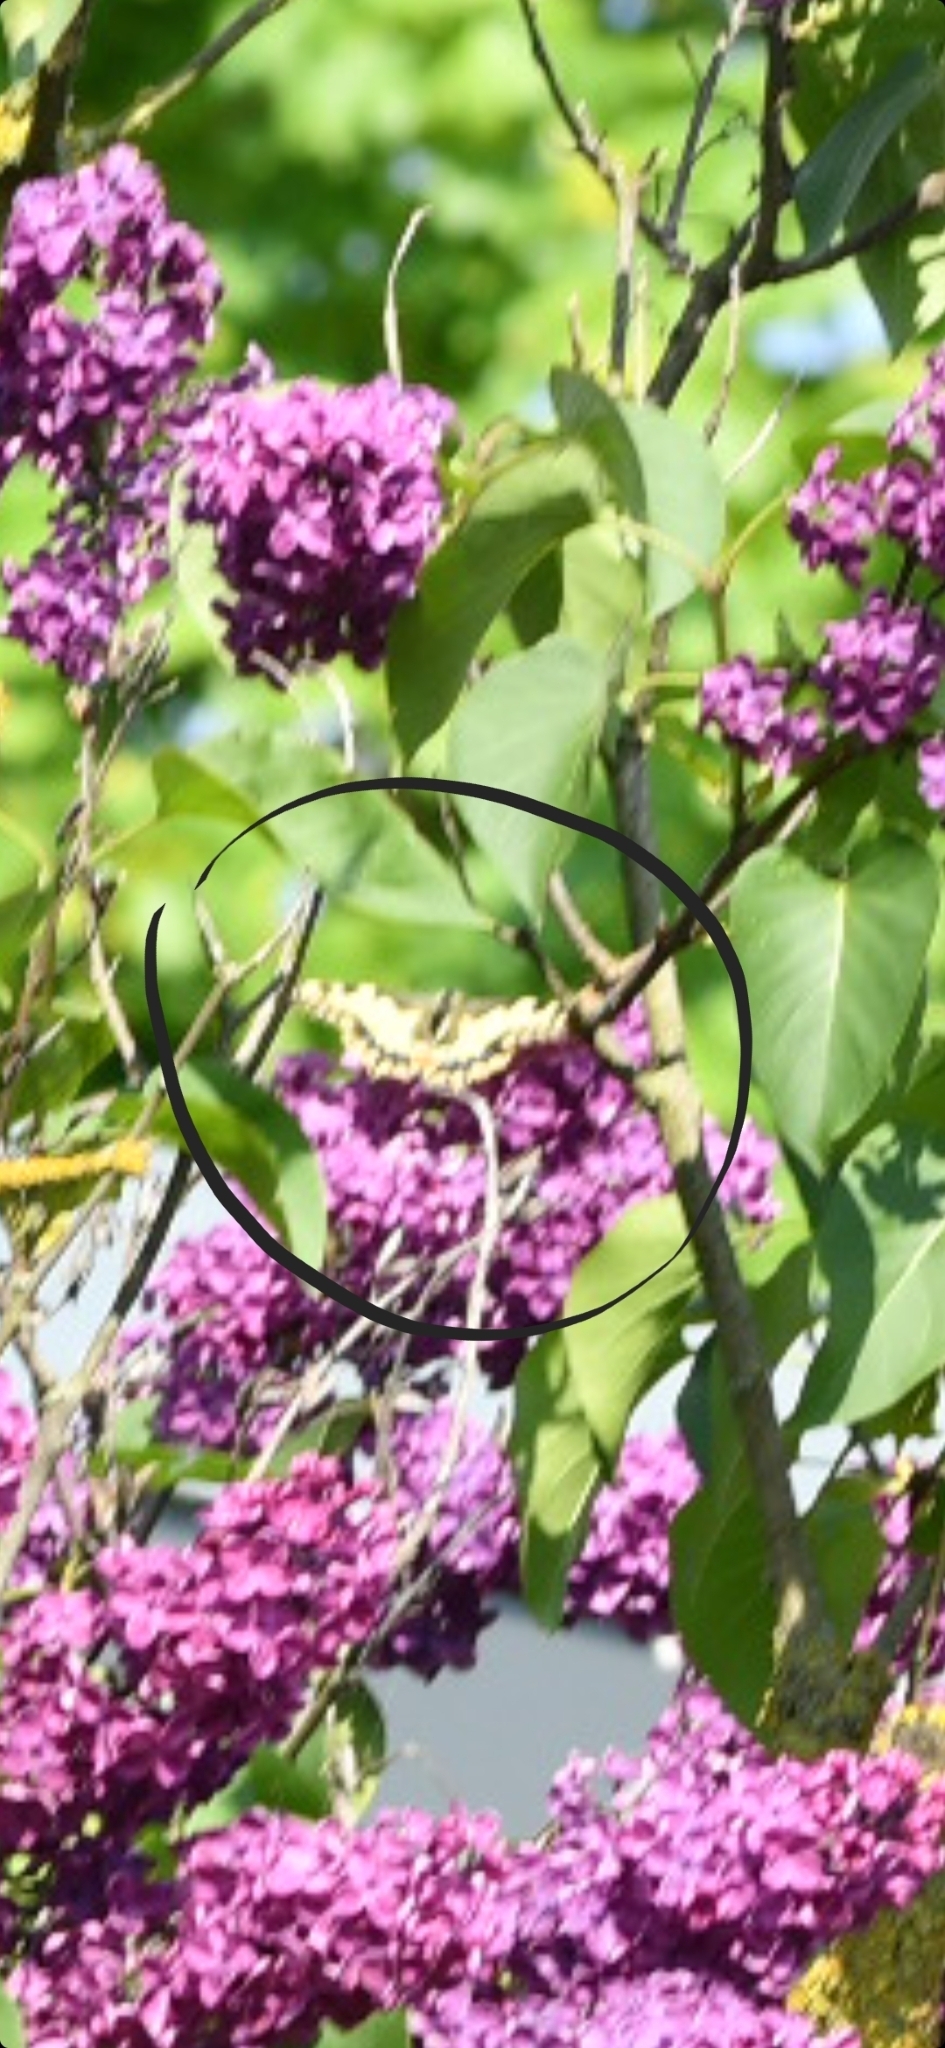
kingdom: Animalia
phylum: Arthropoda
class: Insecta
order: Lepidoptera
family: Papilionidae
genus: Papilio
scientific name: Papilio machaon
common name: Swallowtail
